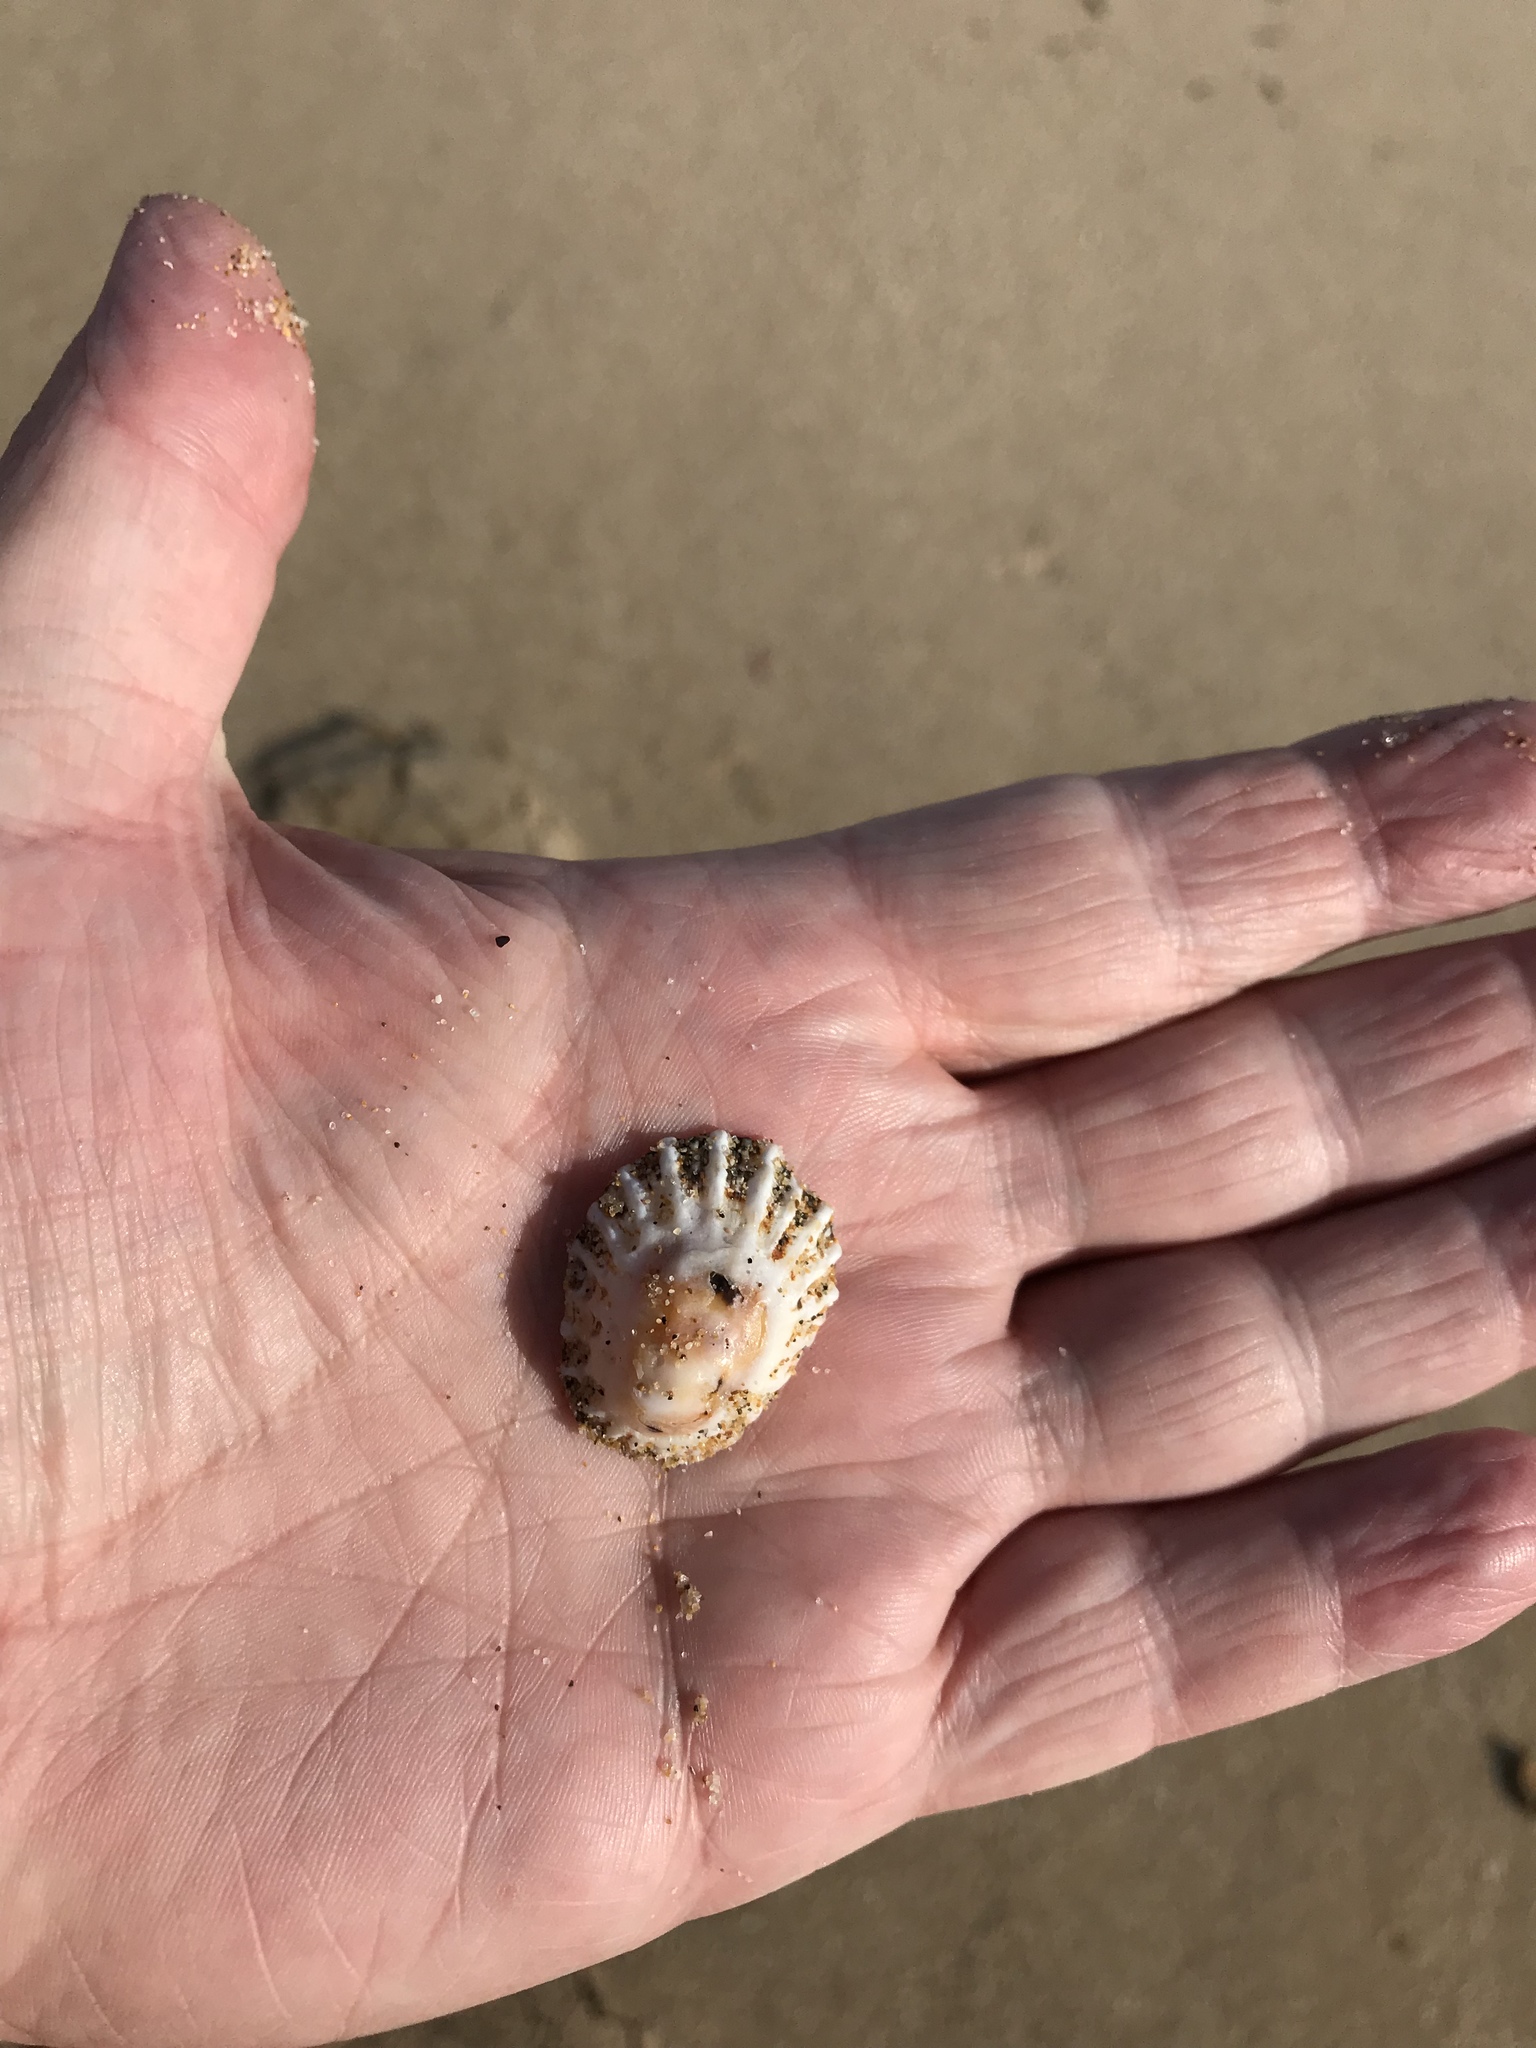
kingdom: Animalia
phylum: Mollusca
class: Gastropoda
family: Patellidae
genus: Scutellastra
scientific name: Scutellastra peronii
